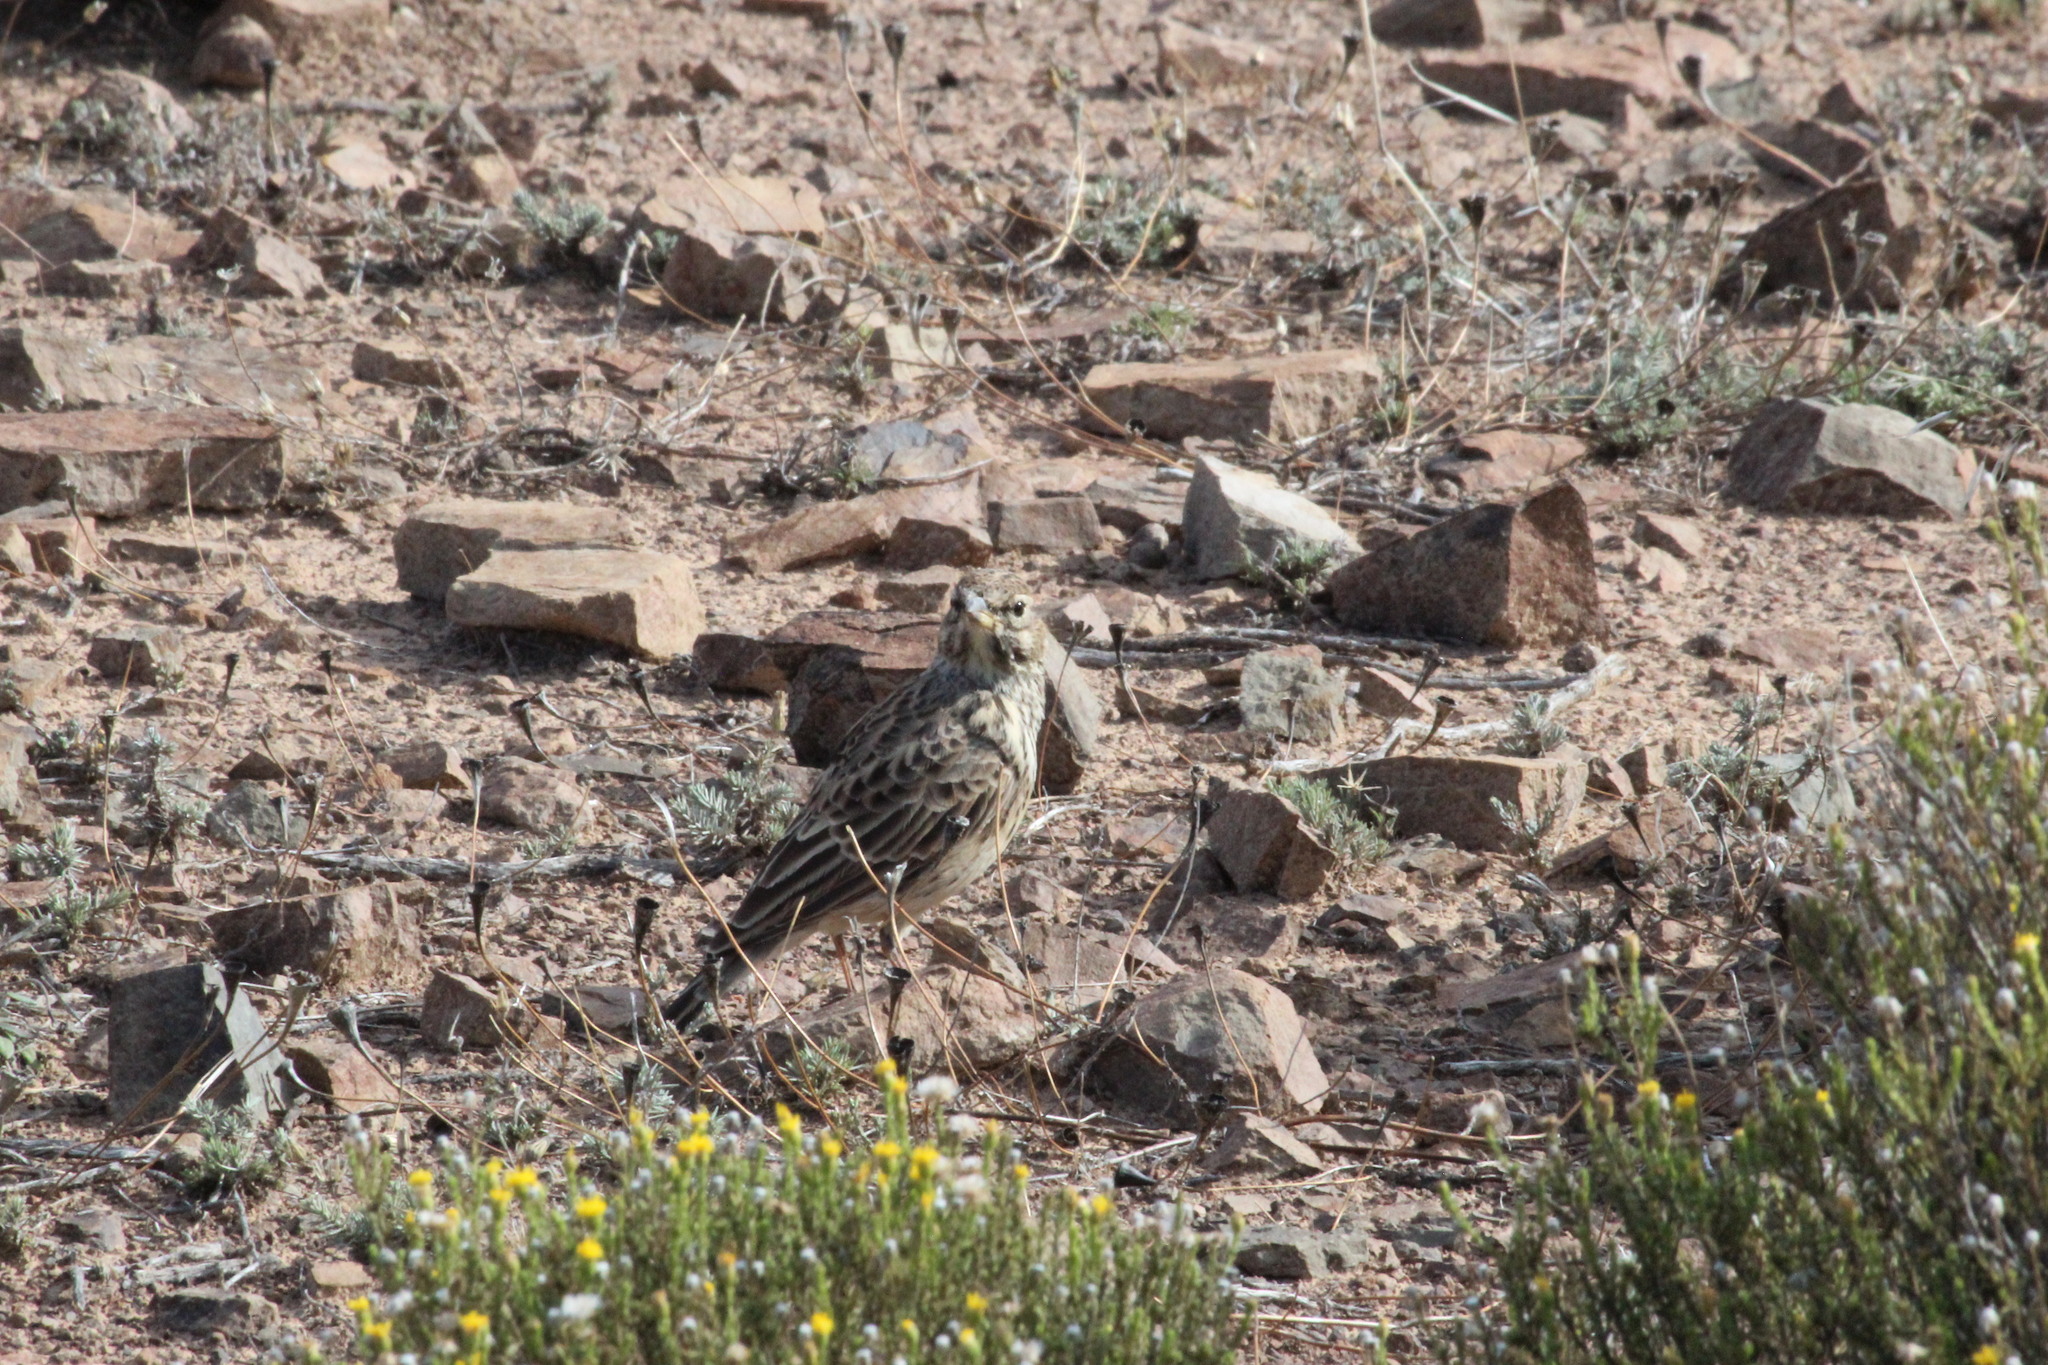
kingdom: Animalia
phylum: Chordata
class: Aves
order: Passeriformes
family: Alaudidae
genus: Galerida
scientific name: Galerida magnirostris
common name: Large-billed lark
